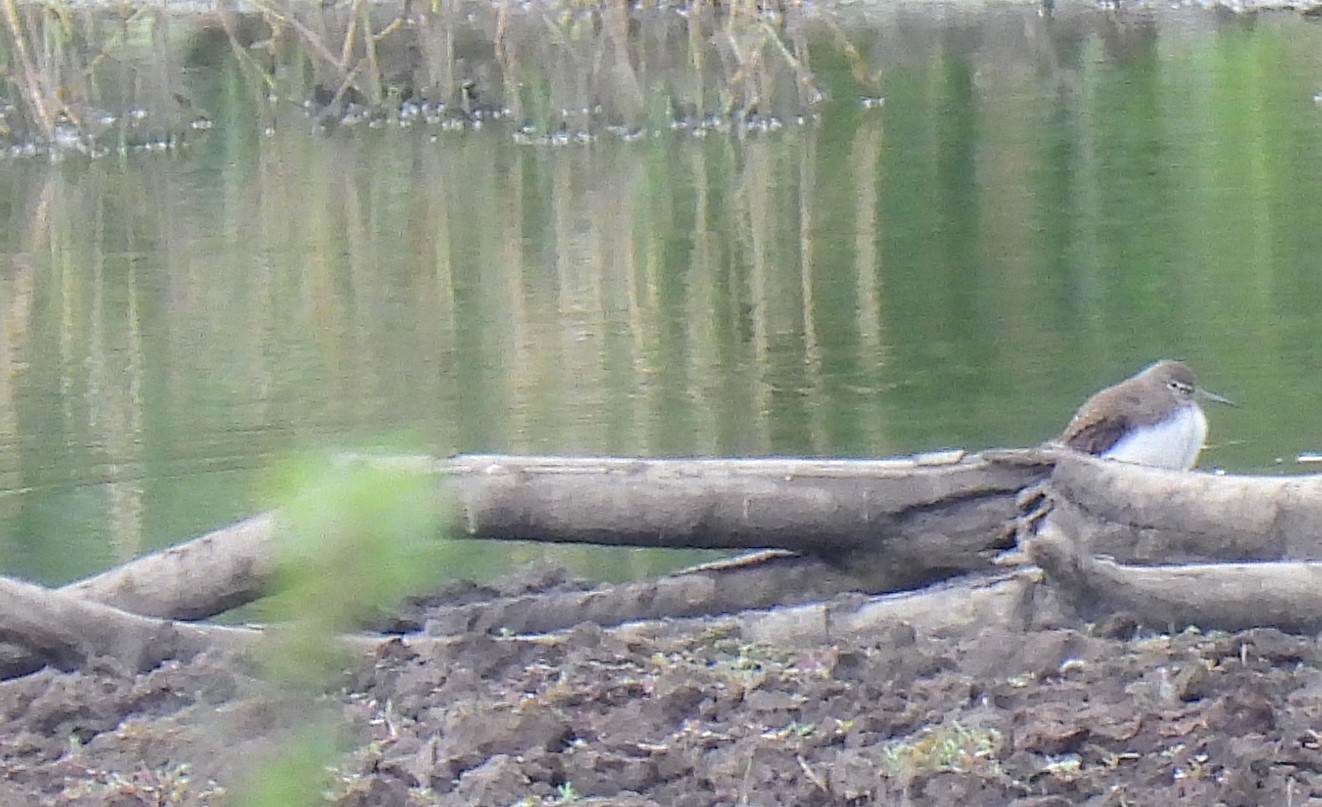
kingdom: Animalia
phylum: Chordata
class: Aves
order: Charadriiformes
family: Scolopacidae
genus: Tringa
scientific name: Tringa ochropus
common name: Green sandpiper
